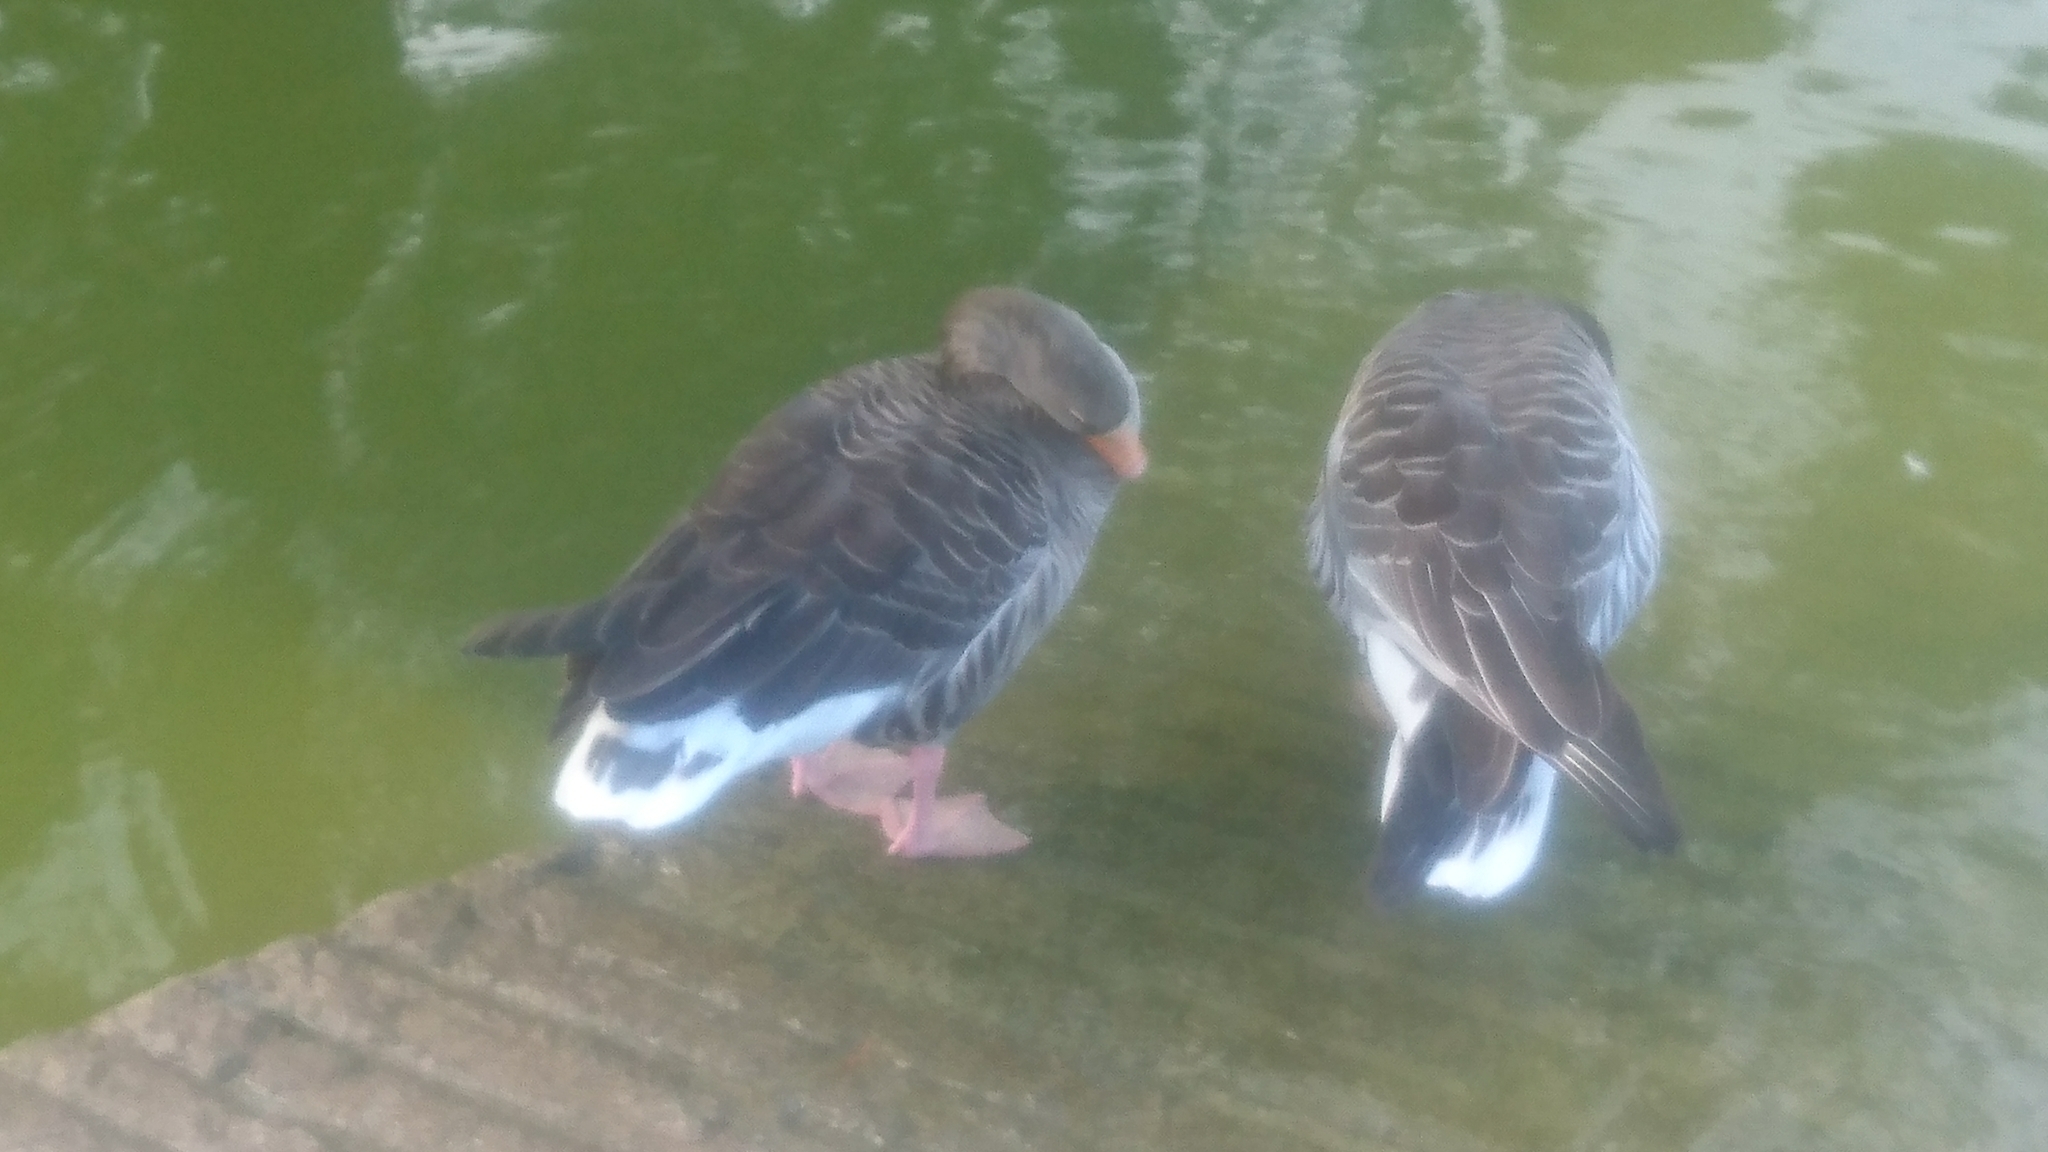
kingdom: Animalia
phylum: Chordata
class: Aves
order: Anseriformes
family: Anatidae
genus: Anser
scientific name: Anser anser
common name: Greylag goose
